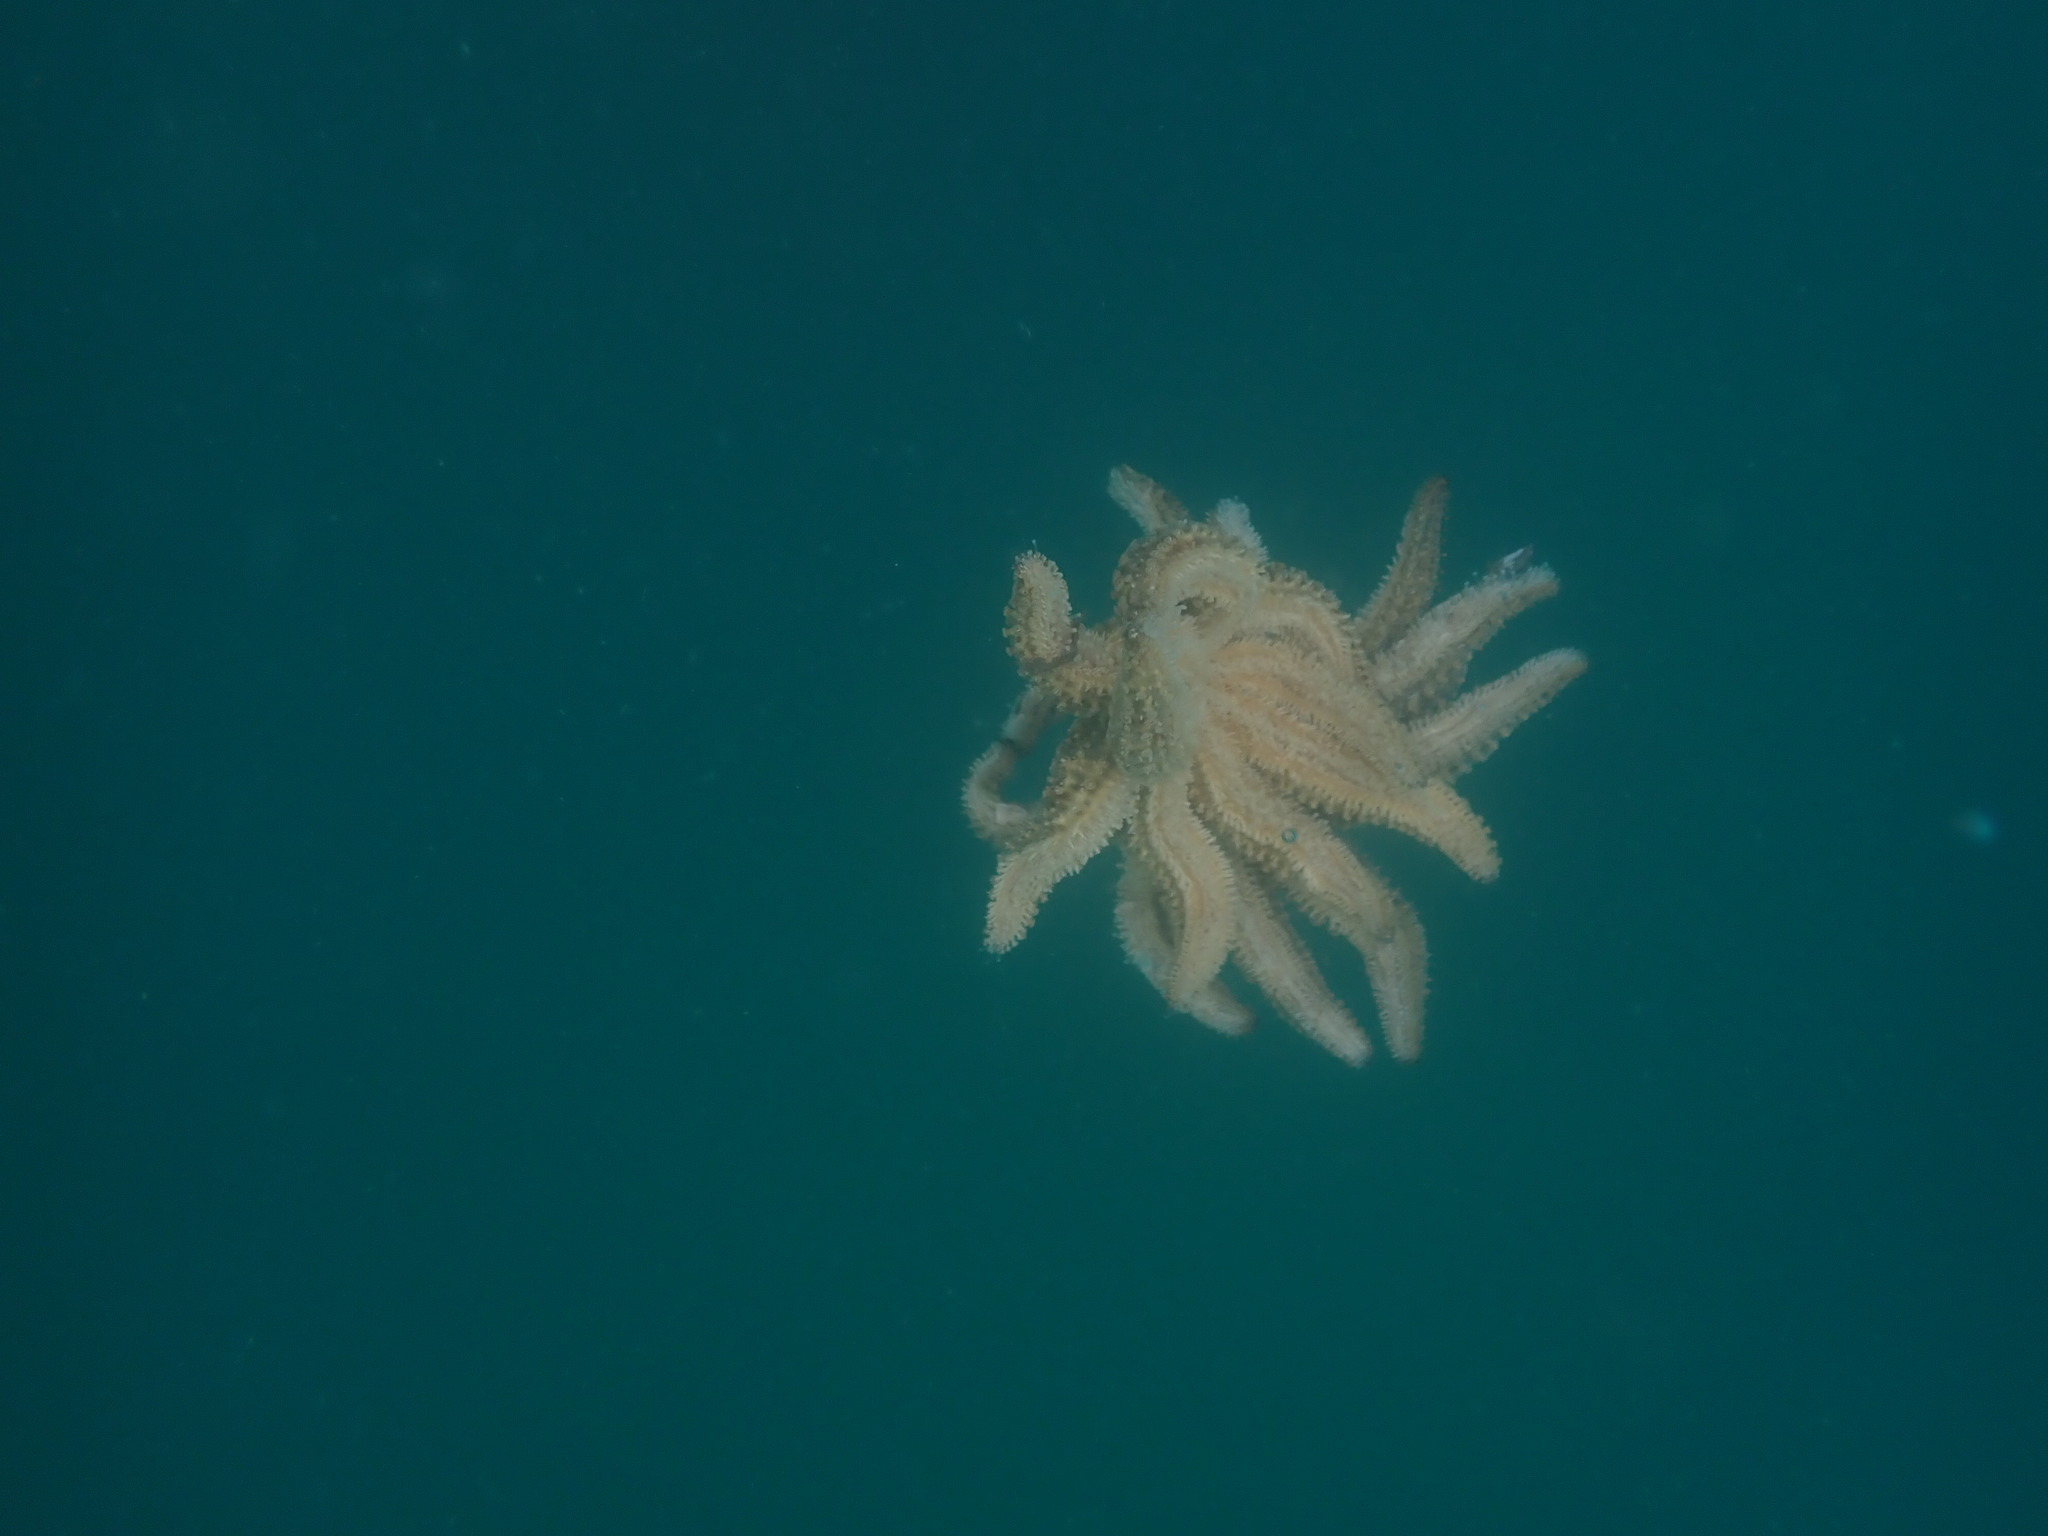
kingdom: Animalia
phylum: Echinodermata
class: Asteroidea
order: Forcipulatida
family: Asteriidae
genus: Coscinasterias
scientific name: Coscinasterias muricata
